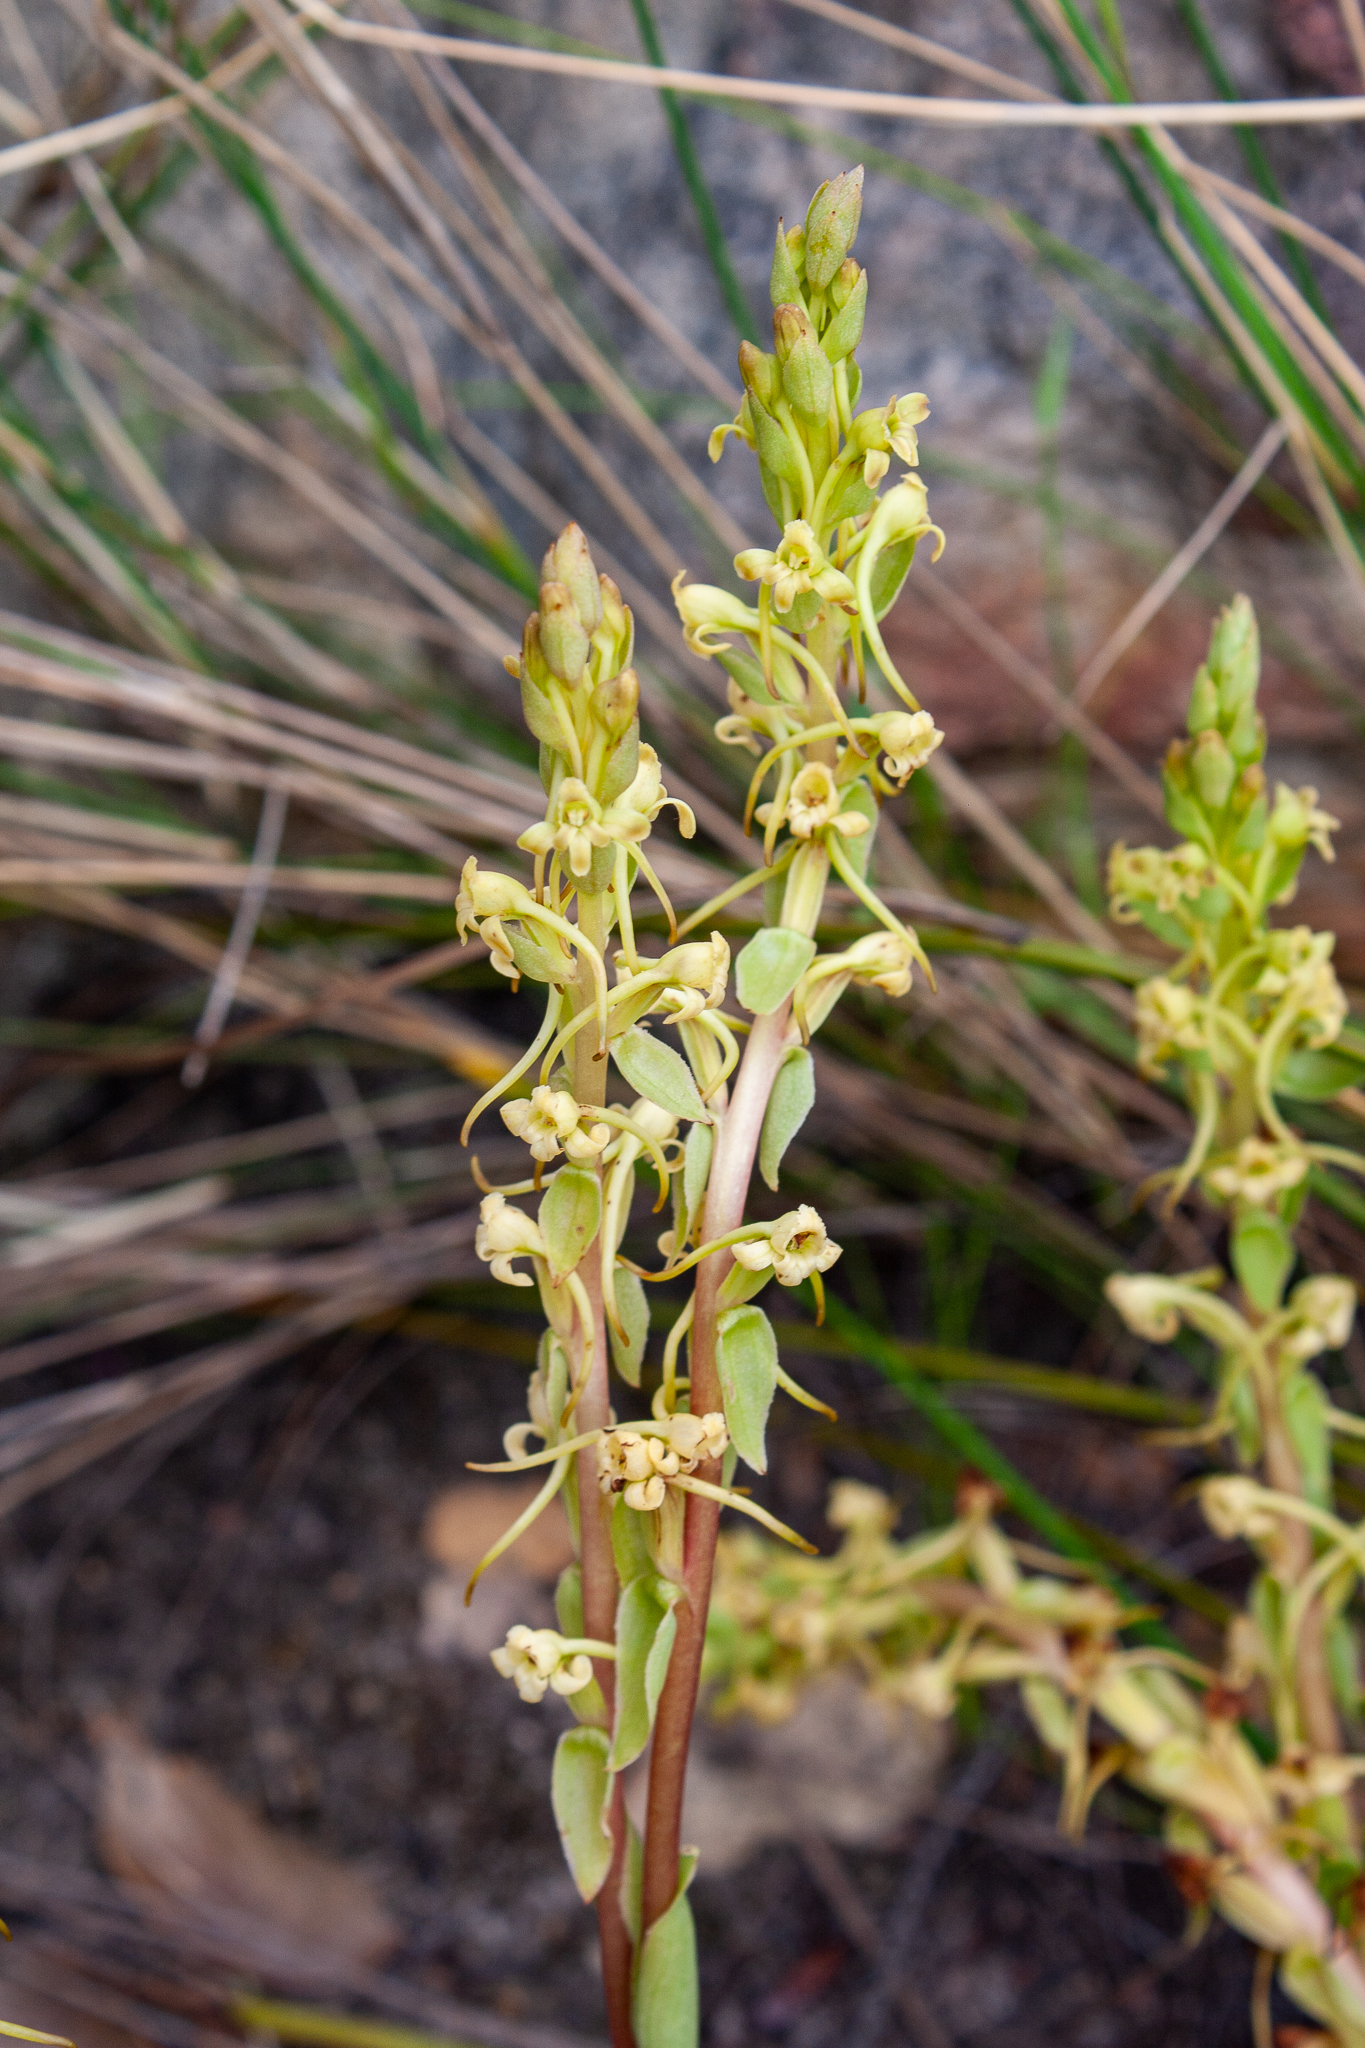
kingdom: Plantae
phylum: Tracheophyta
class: Liliopsida
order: Asparagales
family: Orchidaceae
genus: Satyrium
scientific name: Satyrium humile
